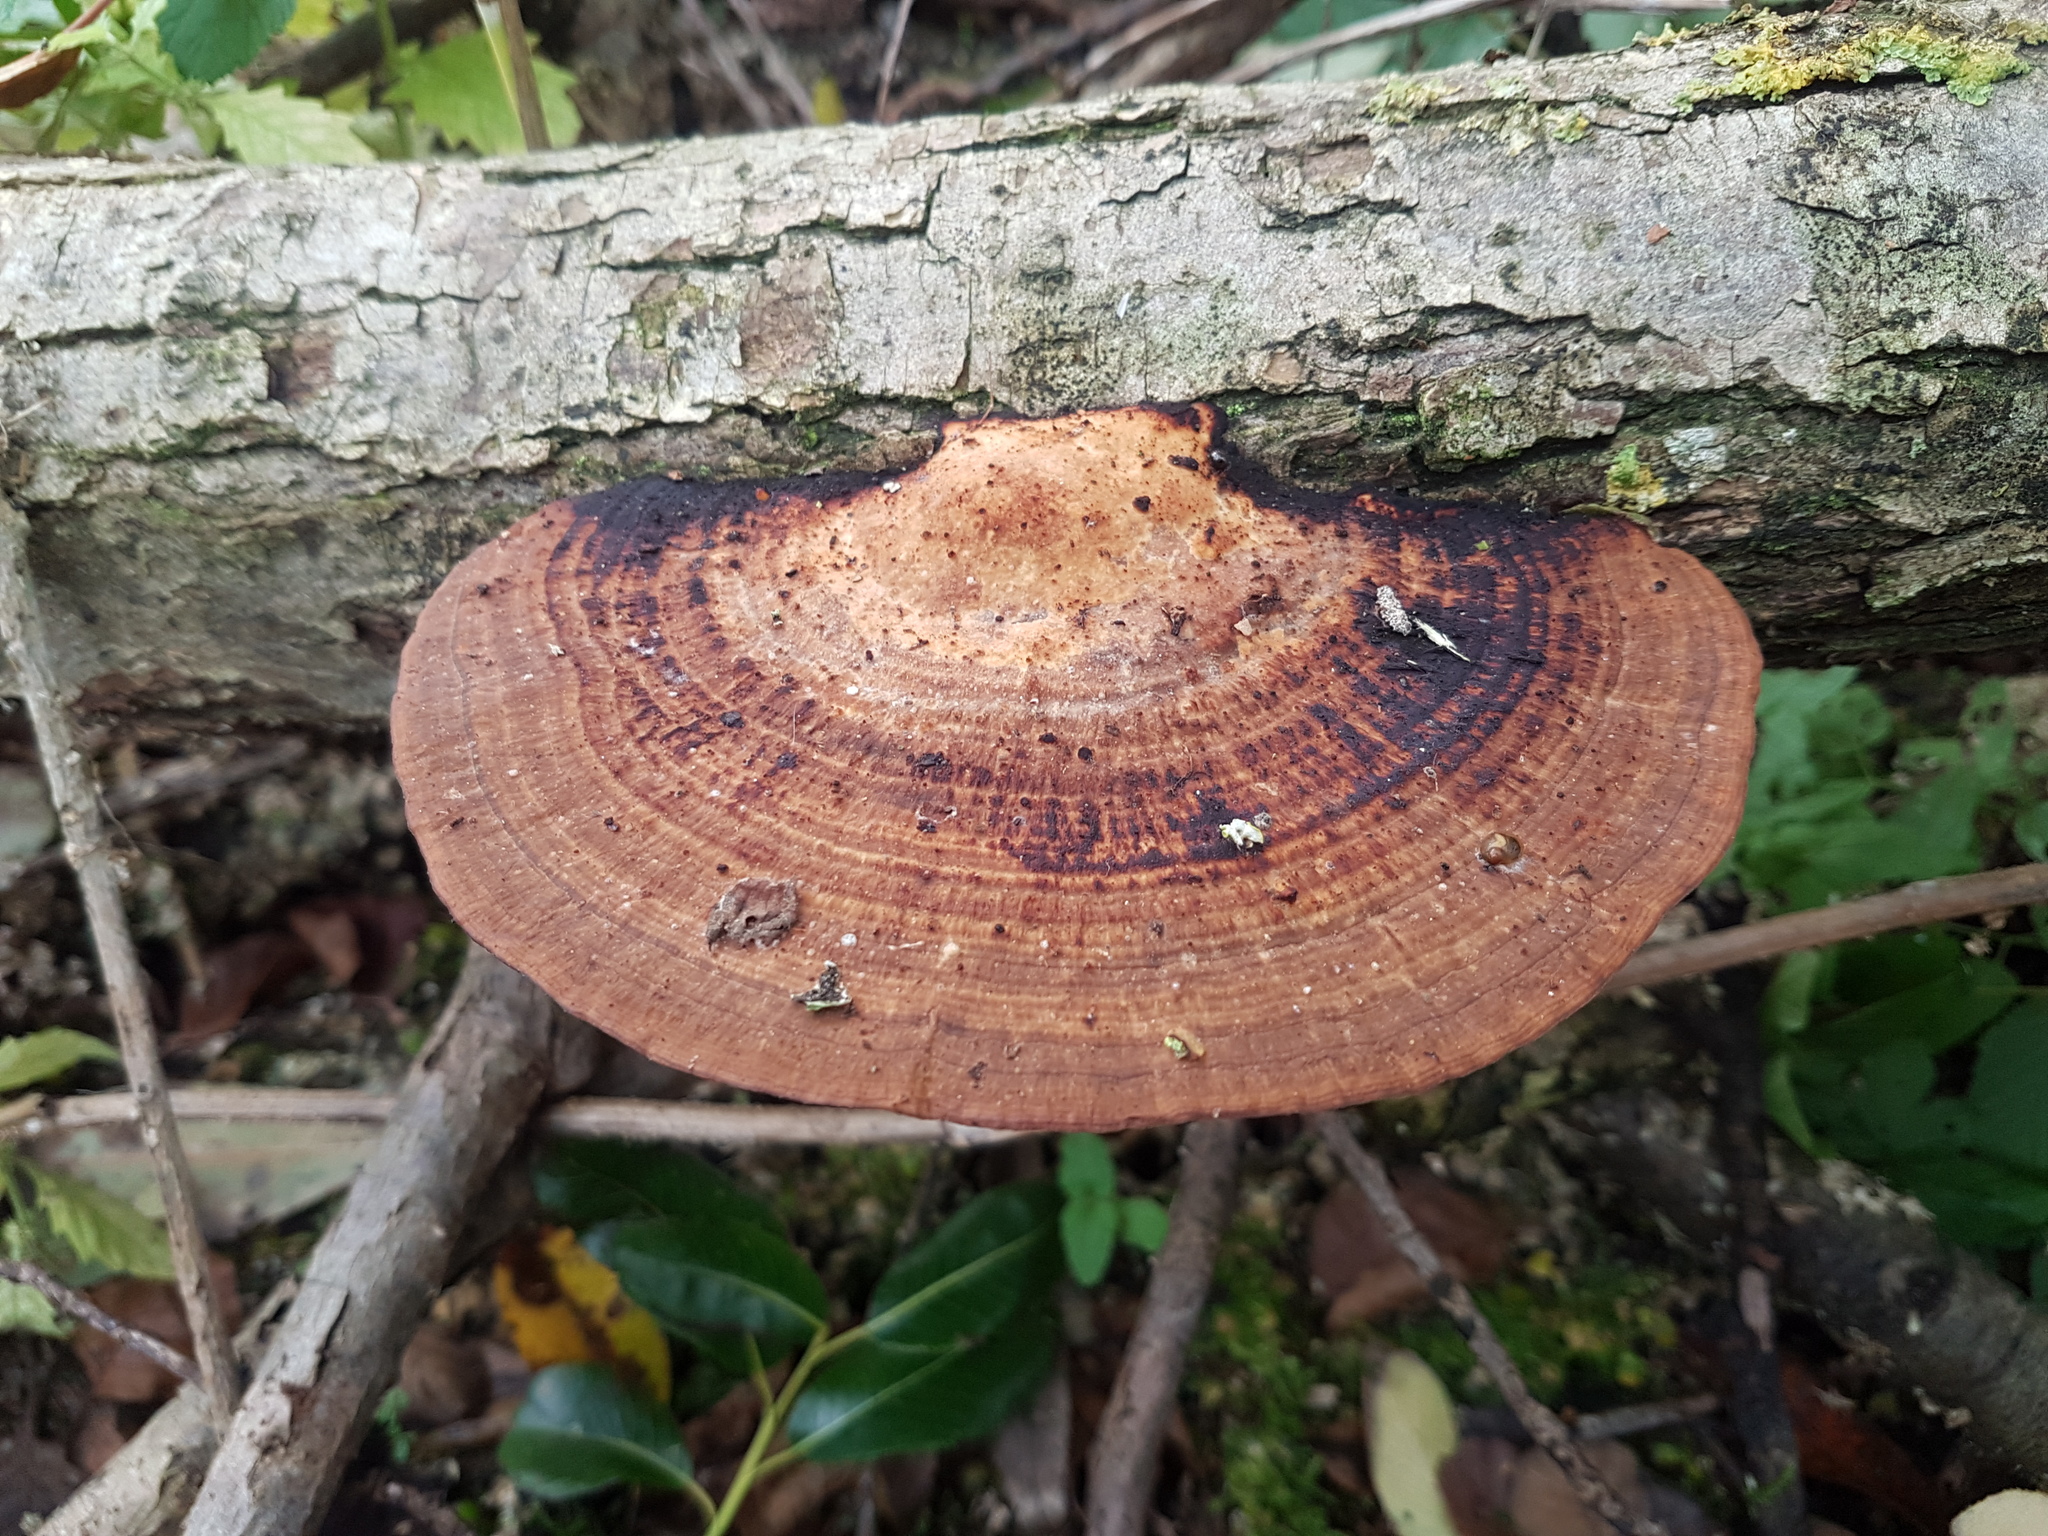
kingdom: Fungi
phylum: Basidiomycota
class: Agaricomycetes
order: Polyporales
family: Polyporaceae
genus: Daedaleopsis
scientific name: Daedaleopsis confragosa
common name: Blushing bracket
